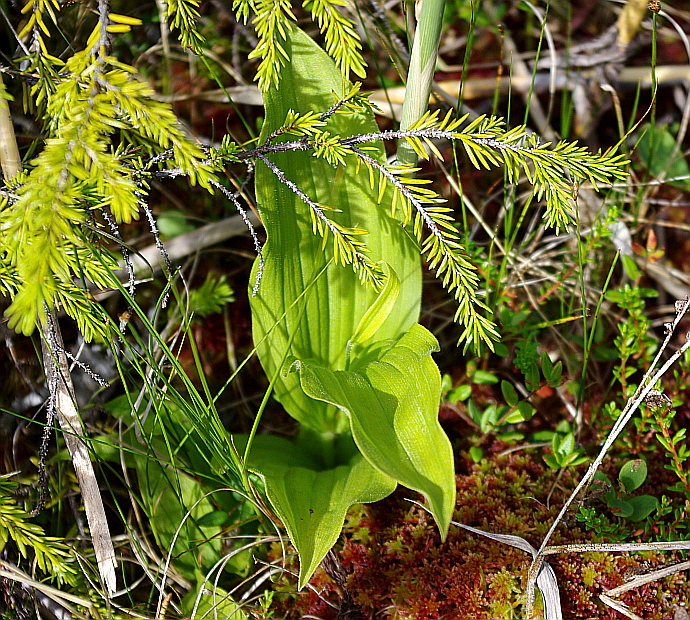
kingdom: Plantae
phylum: Tracheophyta
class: Liliopsida
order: Asparagales
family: Orchidaceae
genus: Cypripedium
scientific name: Cypripedium calceolus
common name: Lady's-slipper
